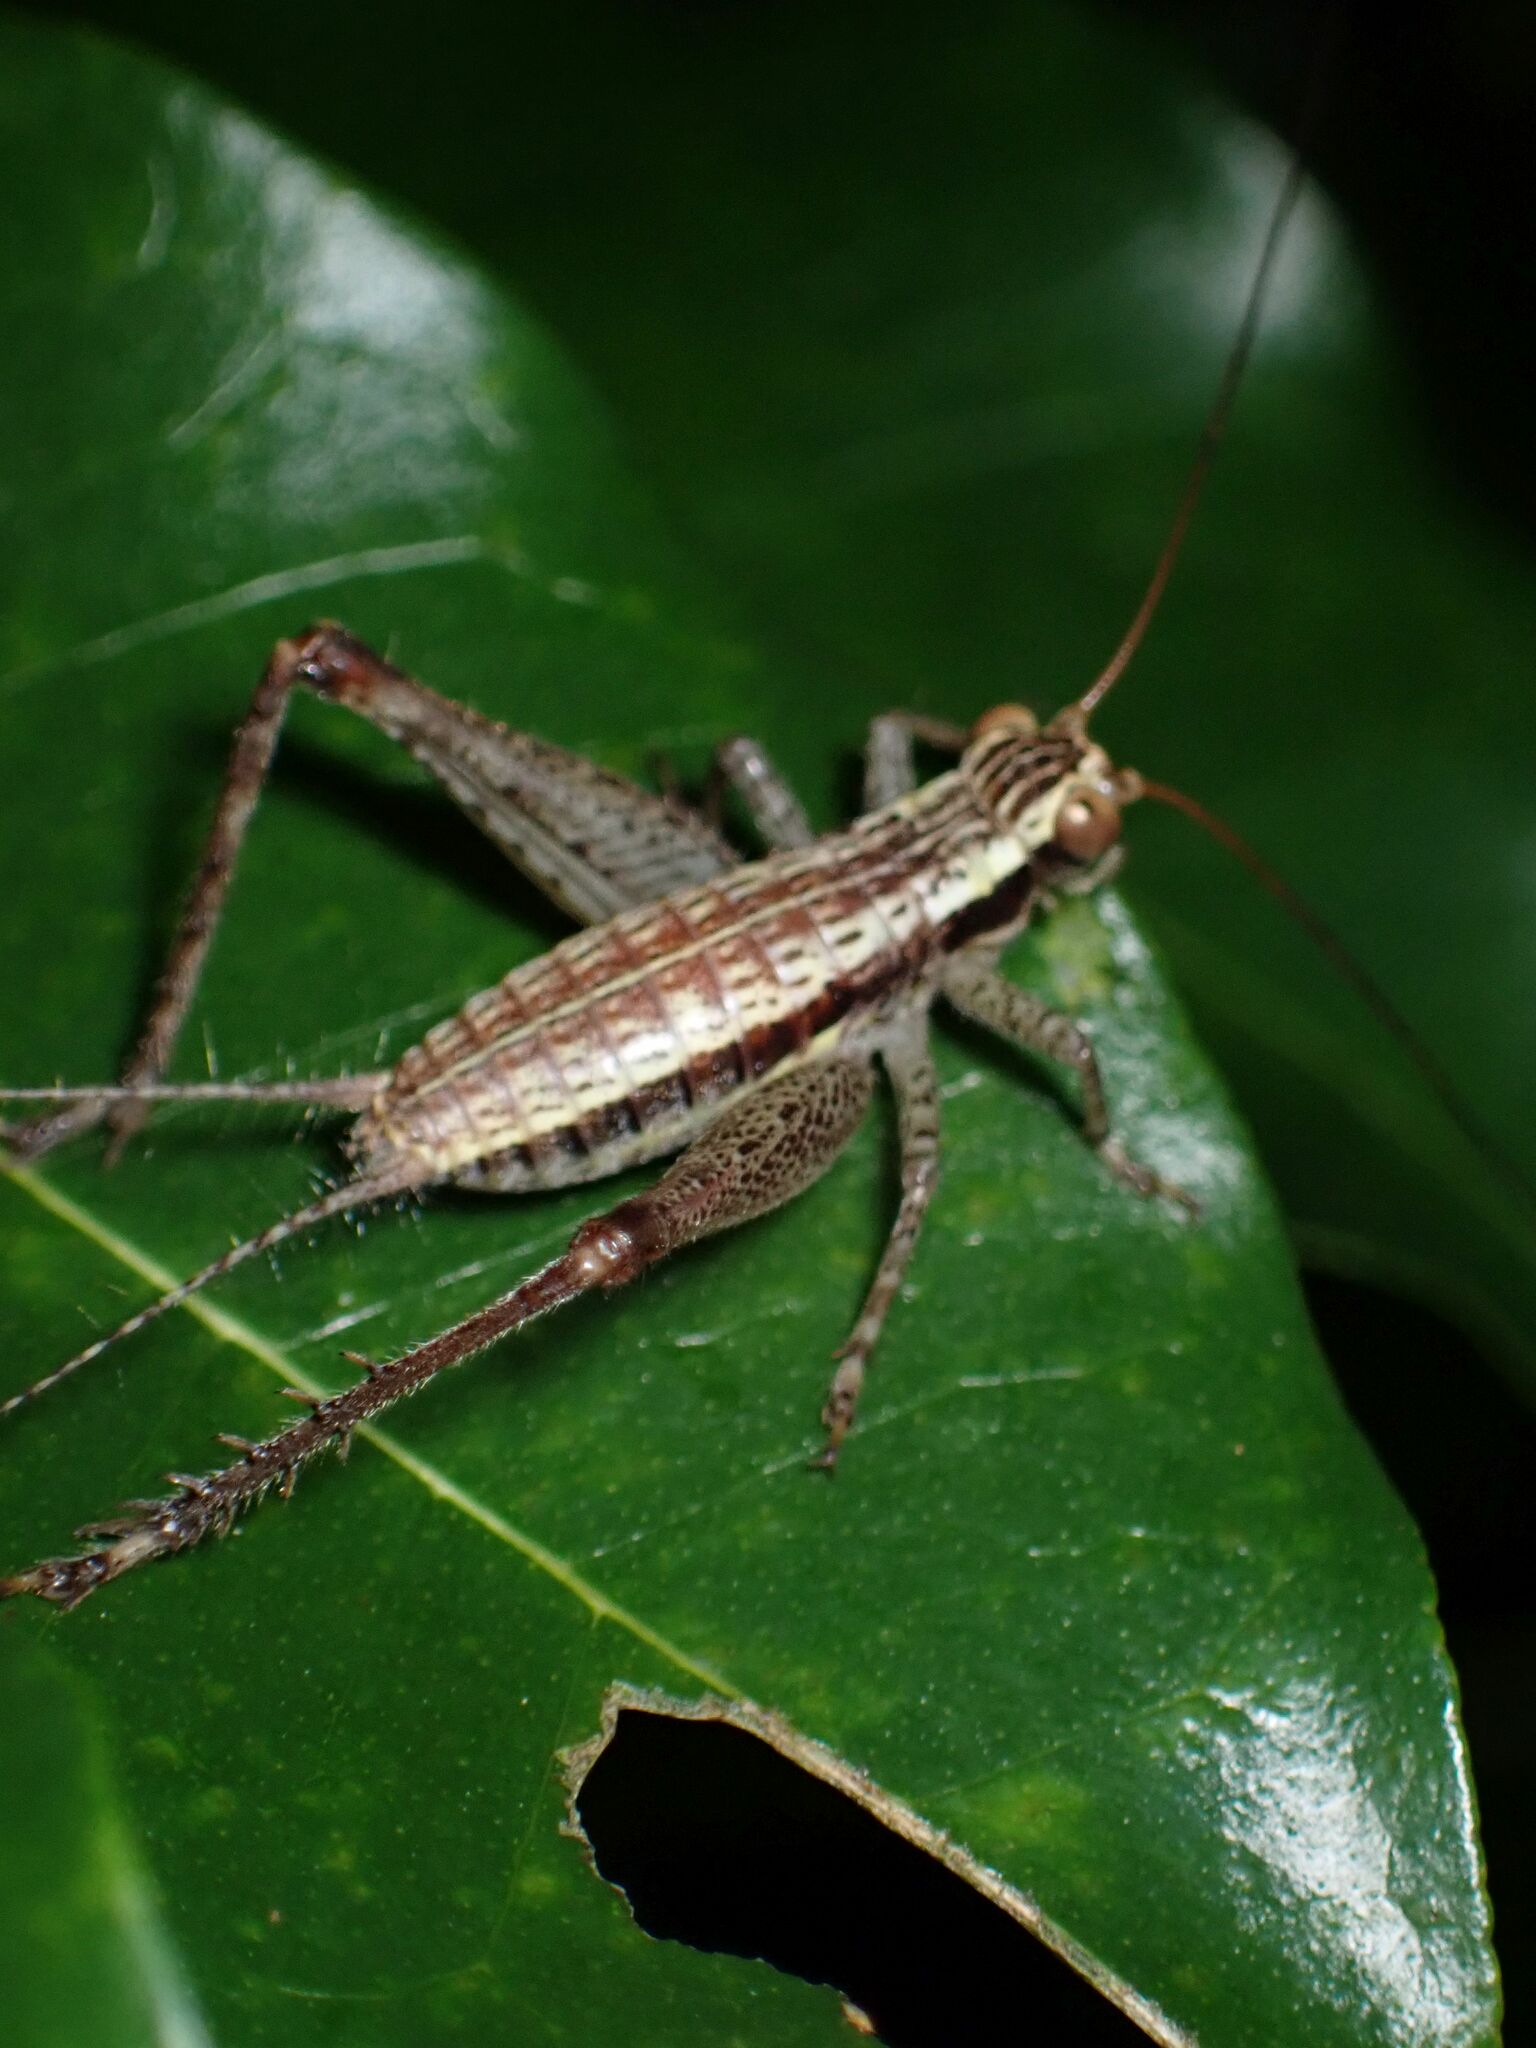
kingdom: Animalia
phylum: Arthropoda
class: Insecta
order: Orthoptera
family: Gryllidae
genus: Cardiodactylus
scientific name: Cardiodactylus novaeguineae
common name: Sad cricket
